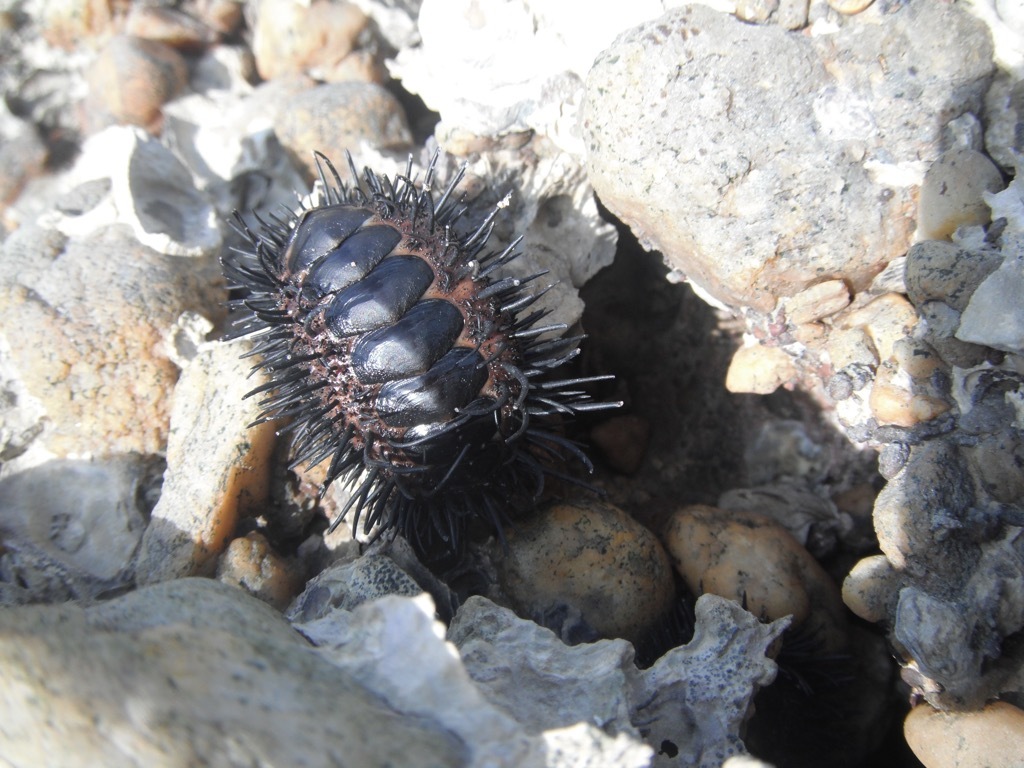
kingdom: Animalia
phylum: Mollusca
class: Polyplacophora
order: Chitonida
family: Chitonidae
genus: Acanthopleura
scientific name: Acanthopleura spinosa
